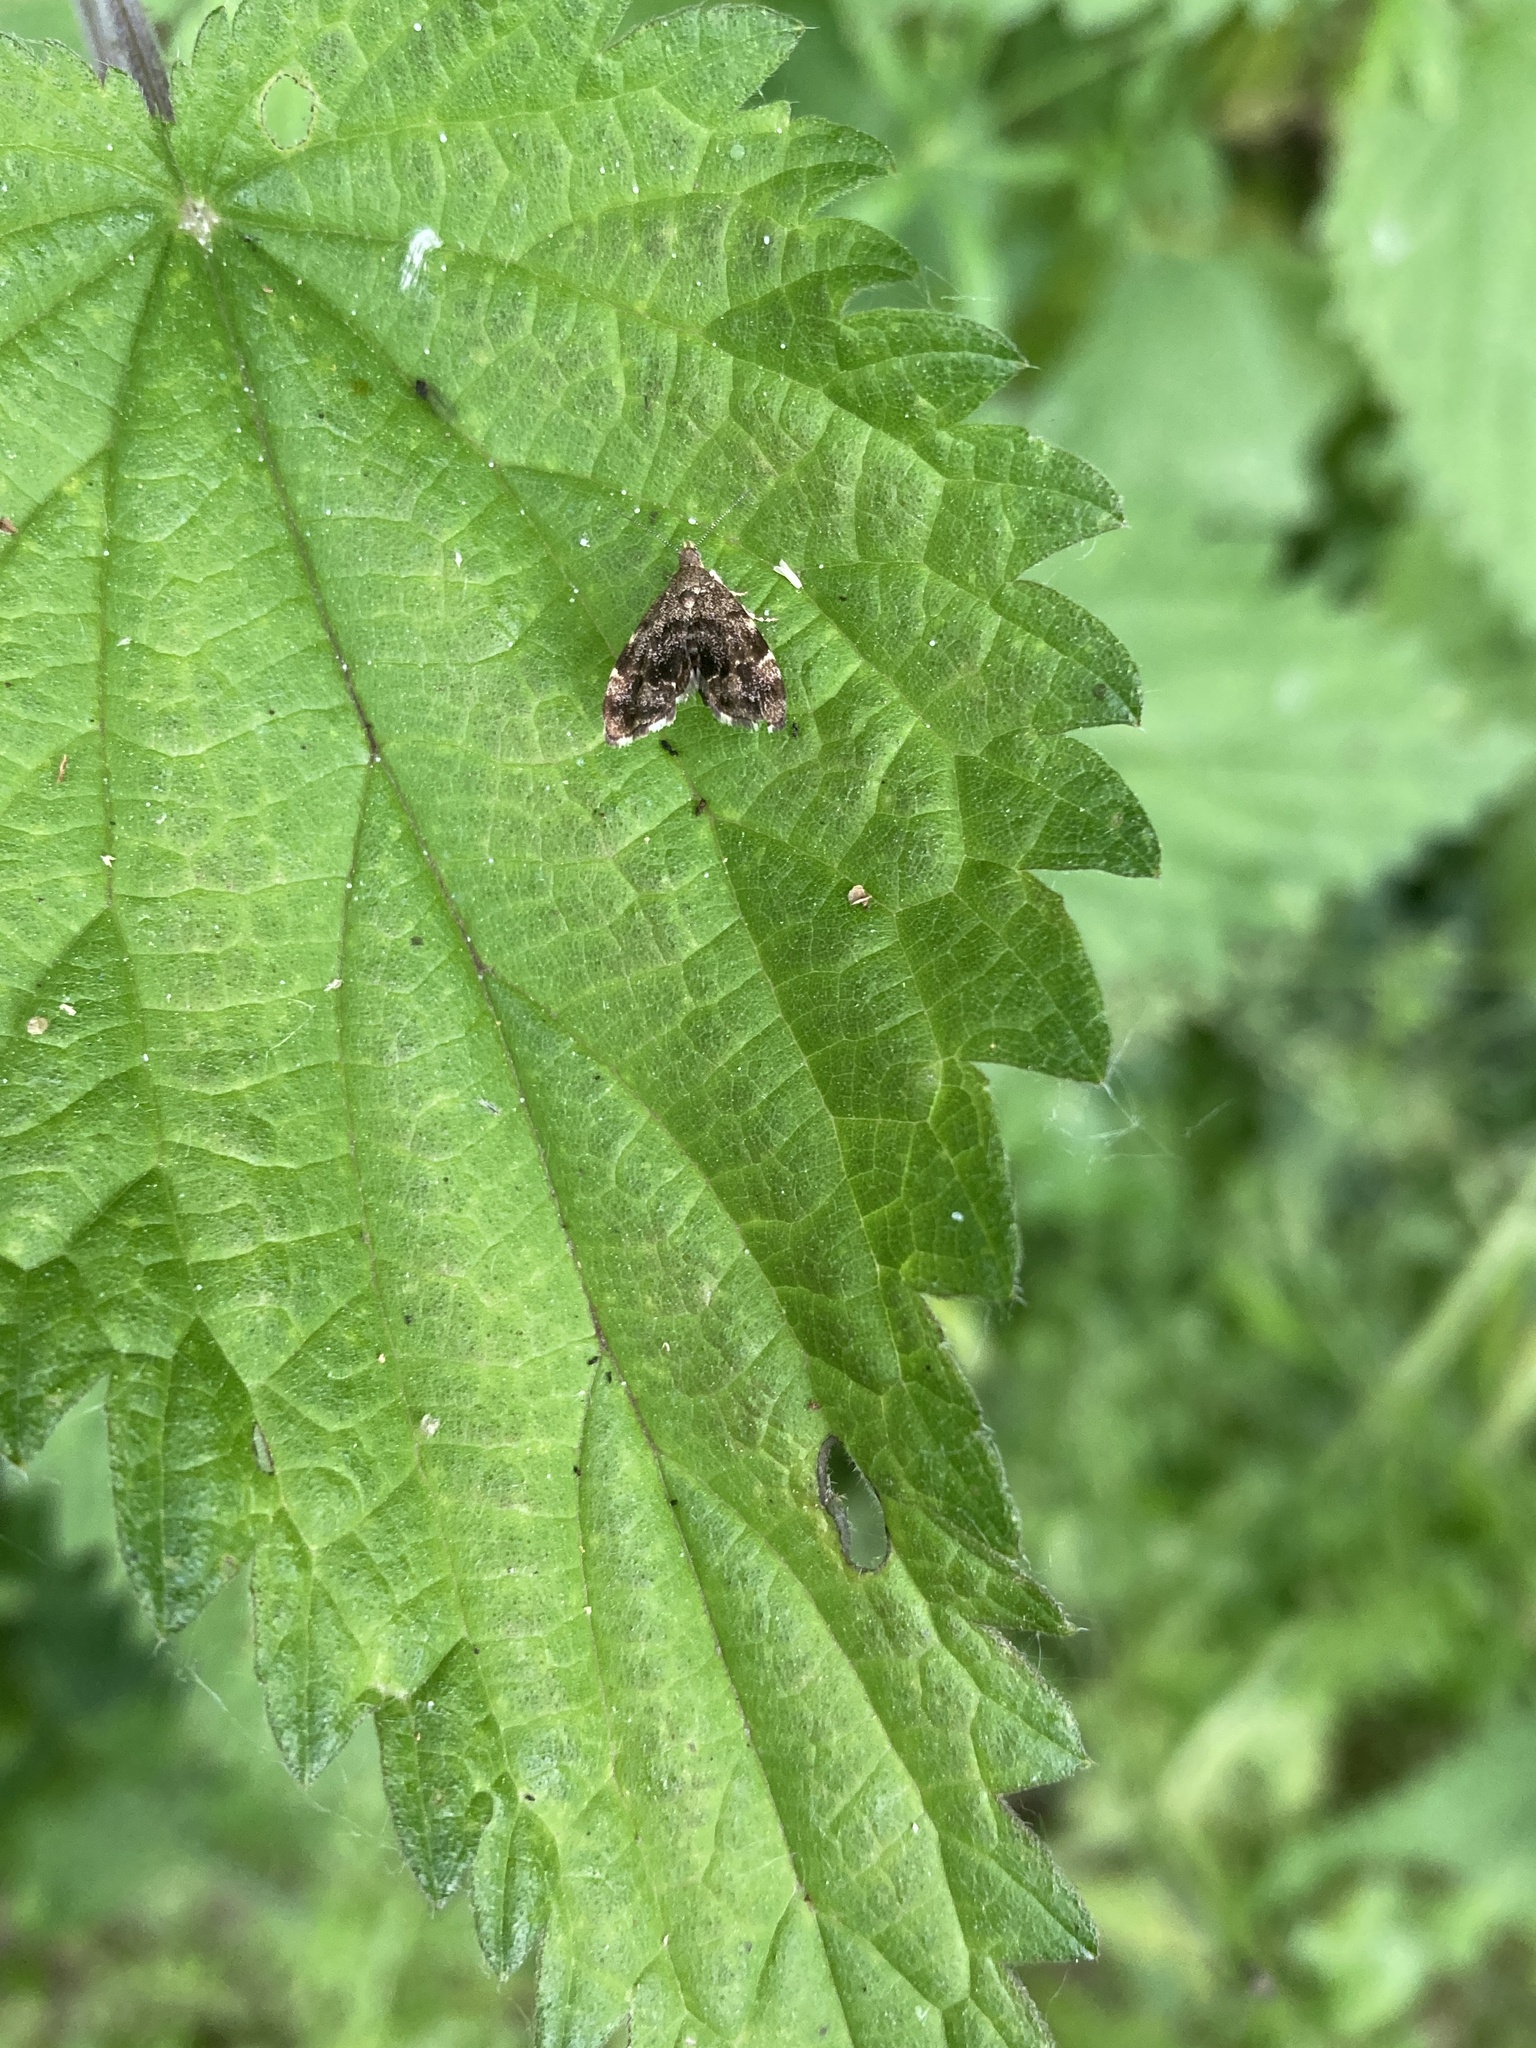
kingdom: Animalia
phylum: Arthropoda
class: Insecta
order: Lepidoptera
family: Choreutidae
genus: Anthophila
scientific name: Anthophila fabriciana
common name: Nettle-tap
